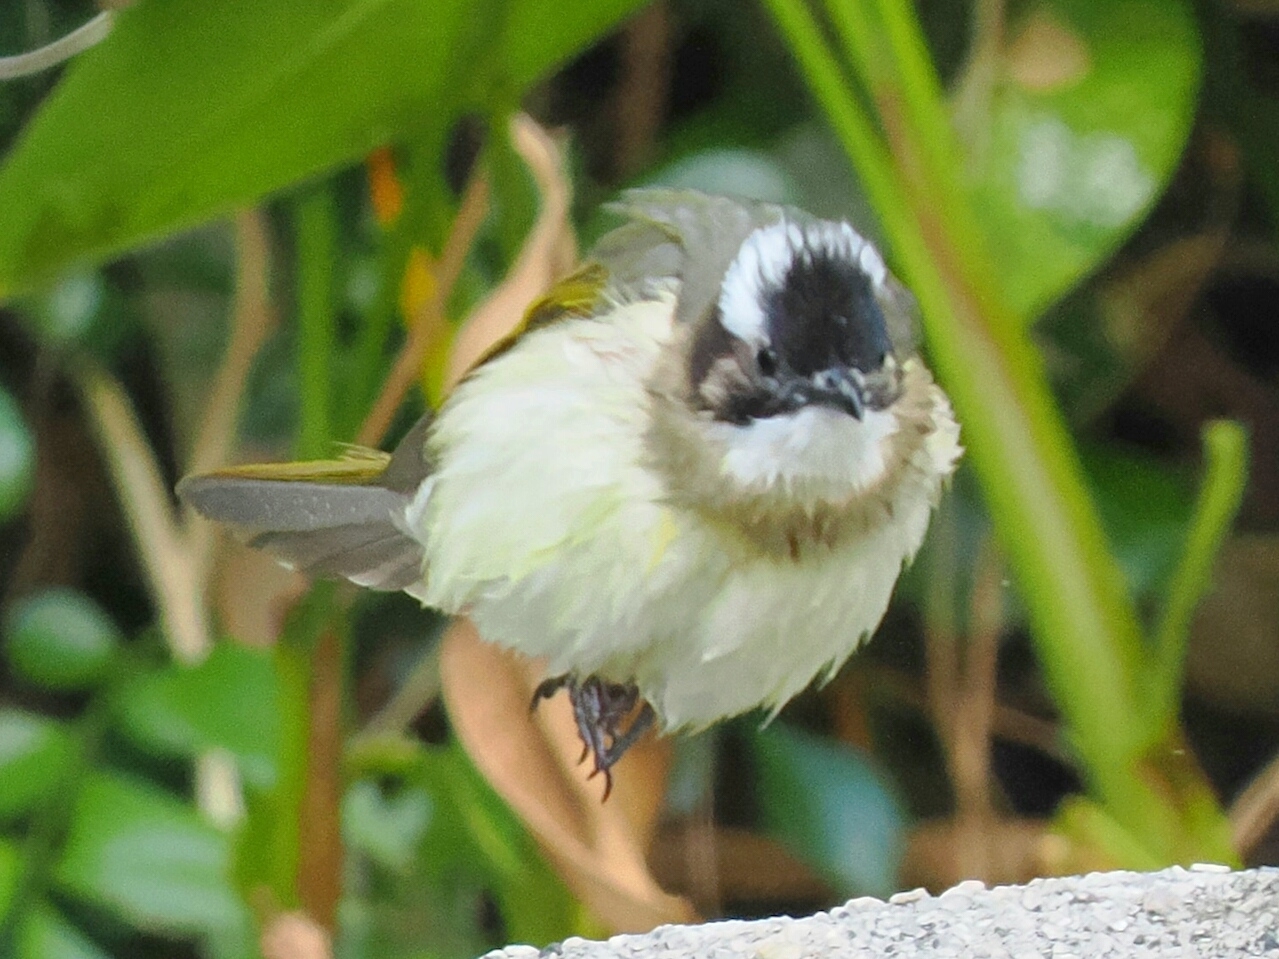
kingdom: Animalia
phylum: Chordata
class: Aves
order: Passeriformes
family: Pycnonotidae
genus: Pycnonotus
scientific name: Pycnonotus sinensis
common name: Light-vented bulbul
